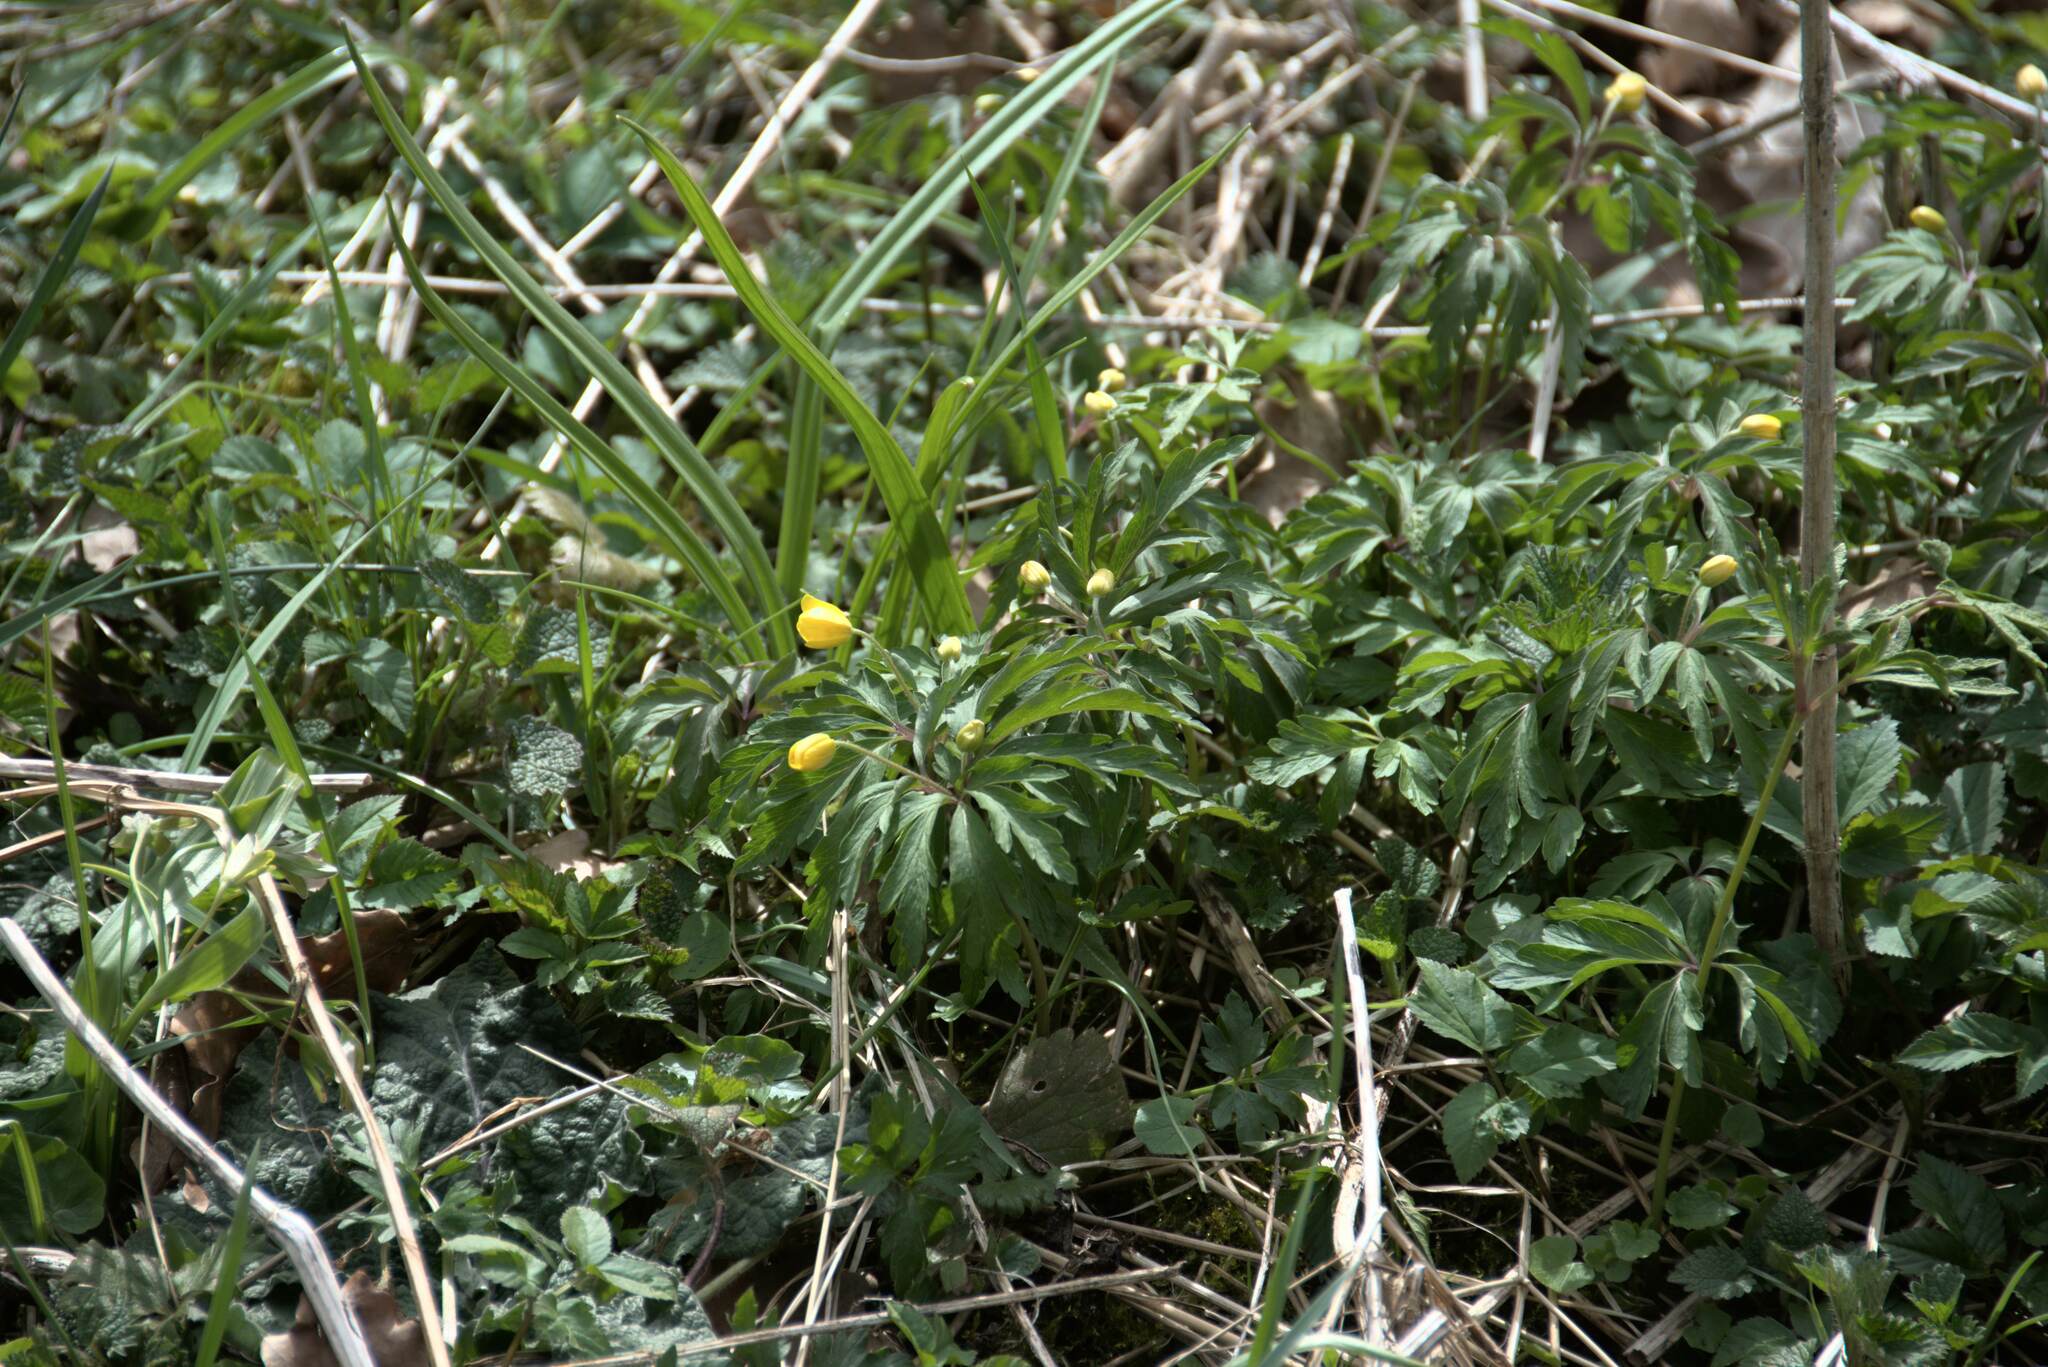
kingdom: Plantae
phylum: Tracheophyta
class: Magnoliopsida
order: Ranunculales
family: Ranunculaceae
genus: Anemone
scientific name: Anemone ranunculoides
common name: Yellow anemone
